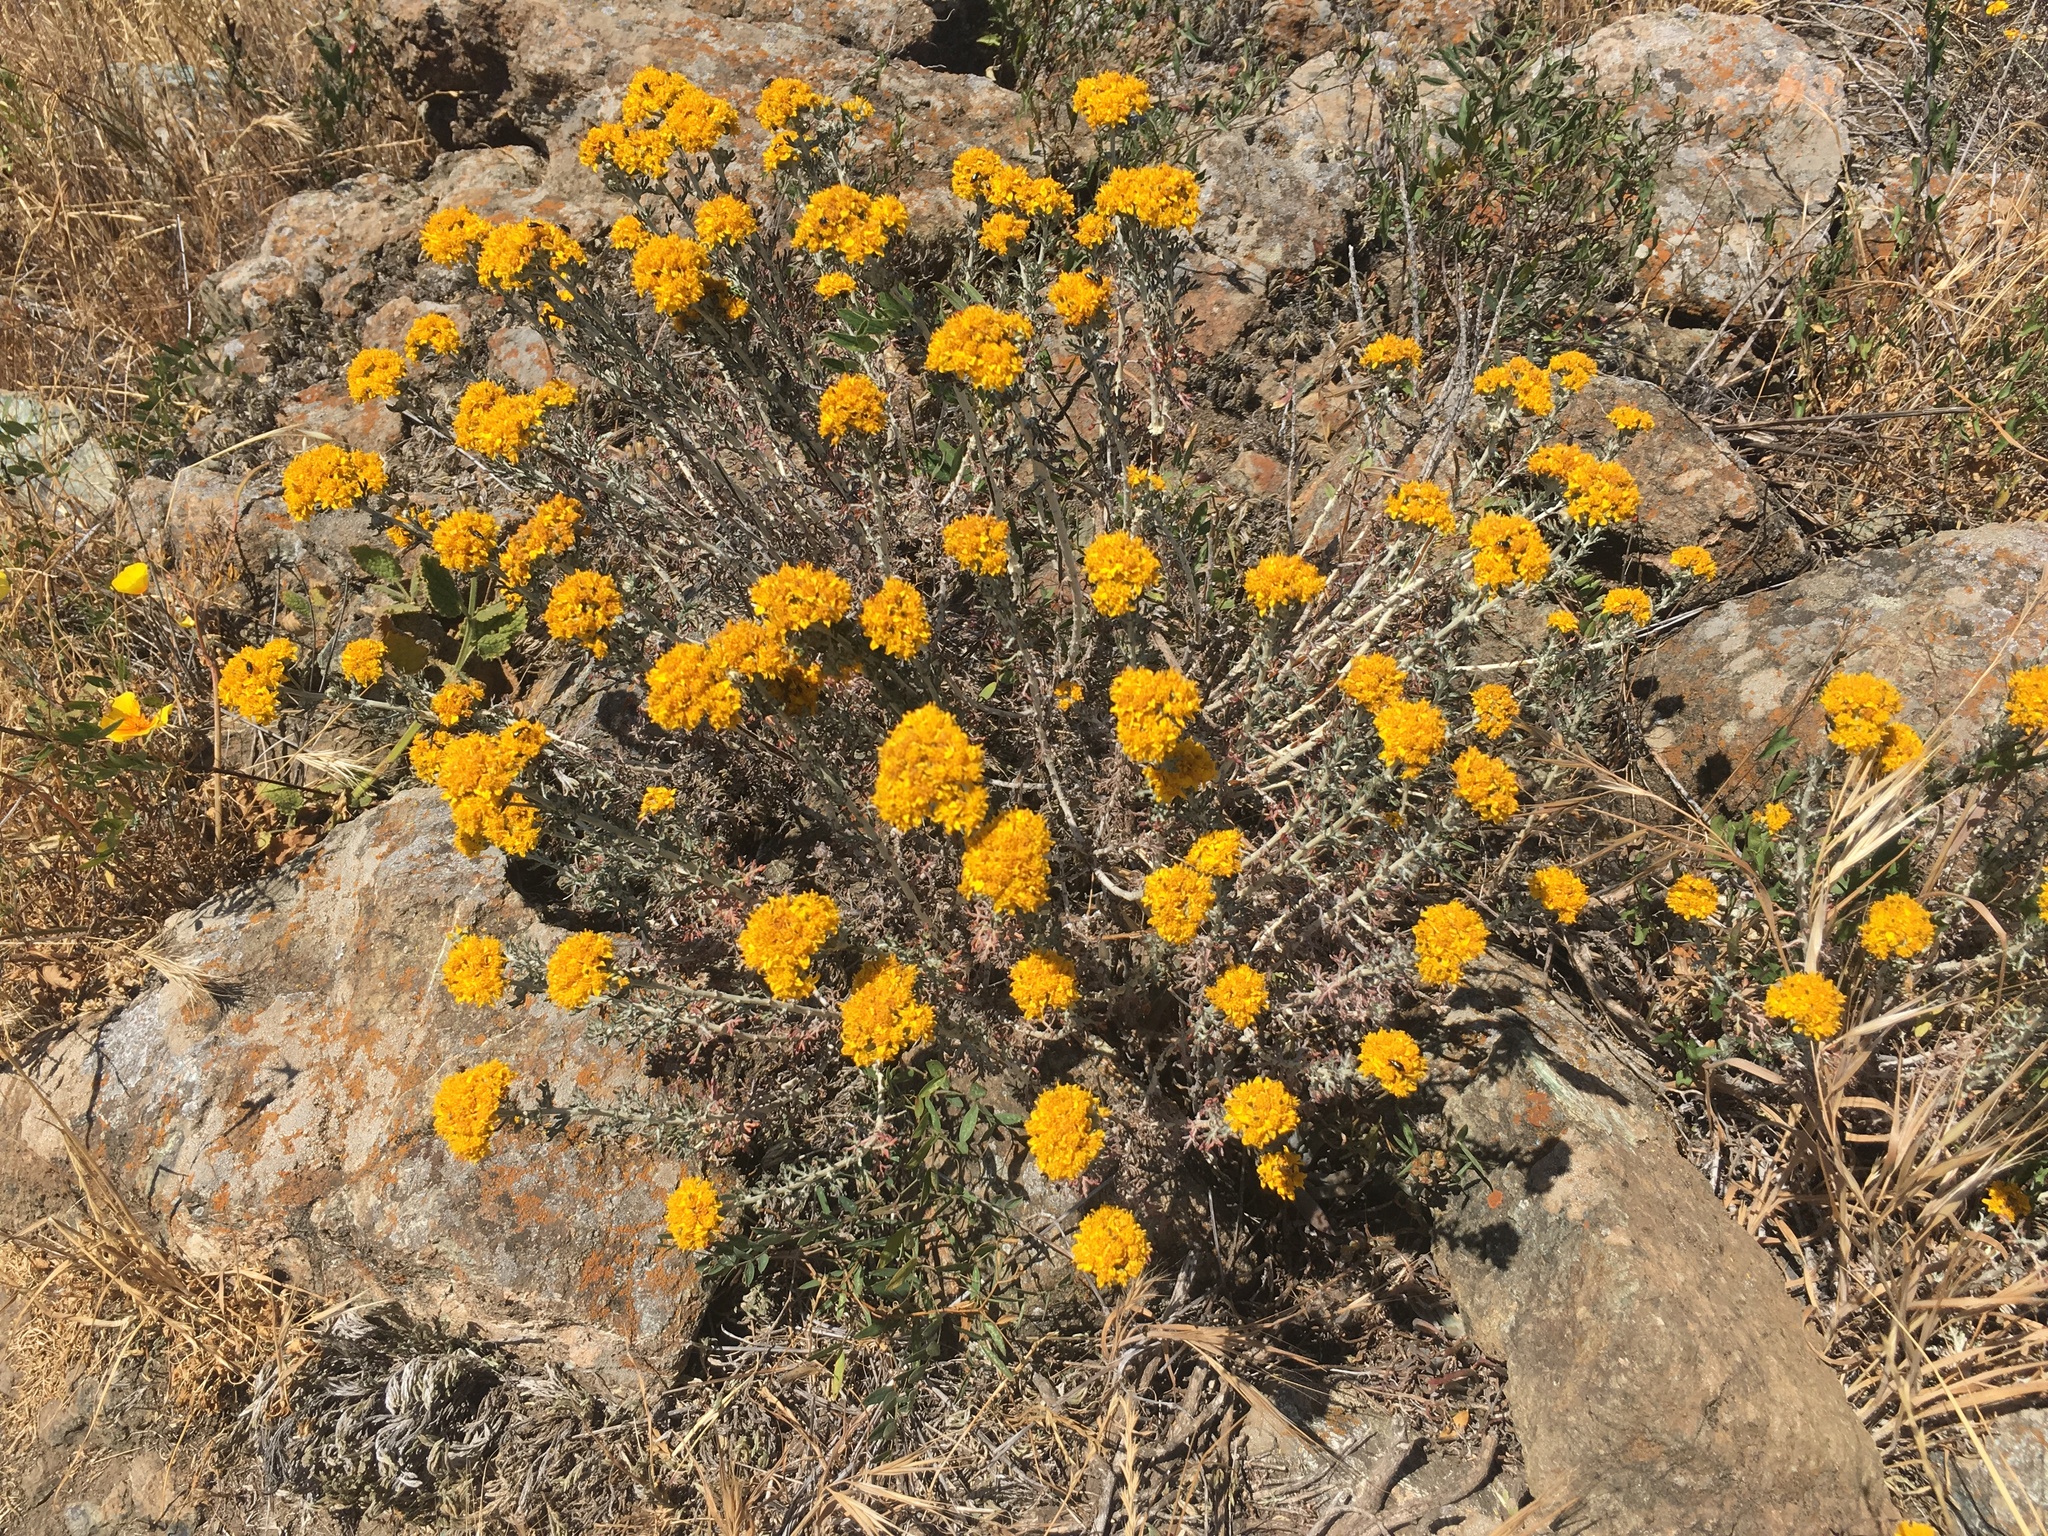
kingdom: Plantae
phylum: Tracheophyta
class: Magnoliopsida
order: Asterales
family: Asteraceae
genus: Eriophyllum
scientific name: Eriophyllum confertiflorum
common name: Golden-yarrow
